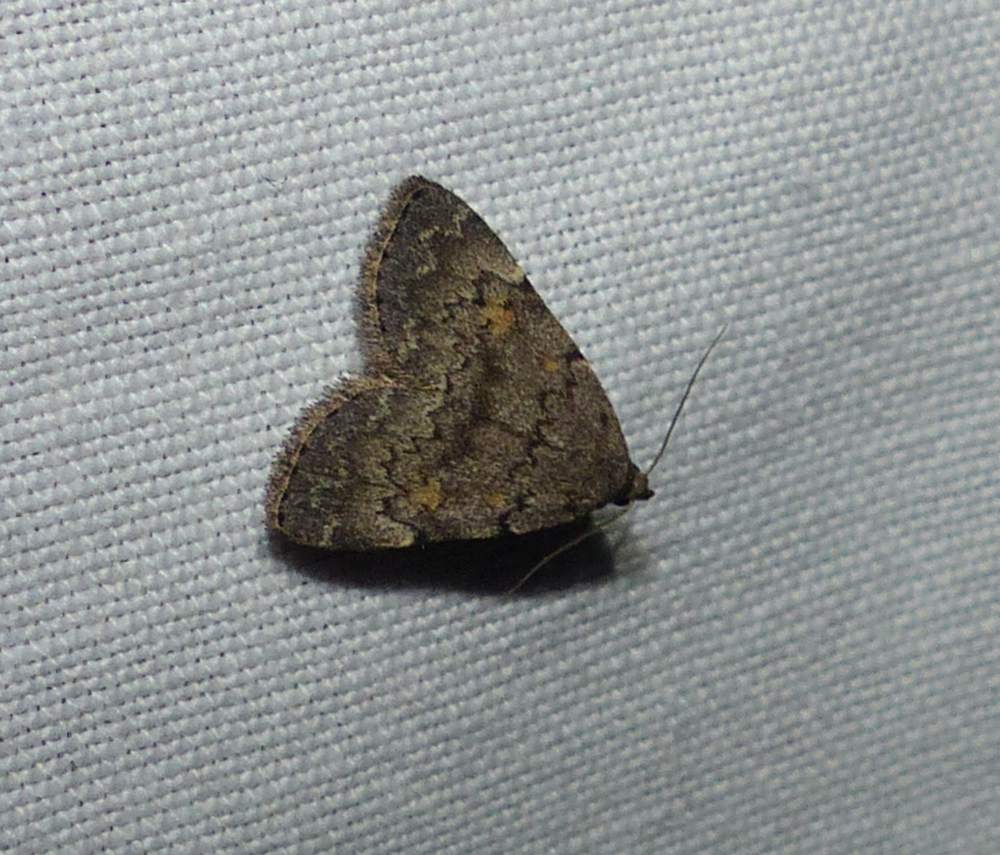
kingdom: Animalia
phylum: Arthropoda
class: Insecta
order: Lepidoptera
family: Erebidae
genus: Idia
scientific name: Idia aemula
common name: Common idia moth
